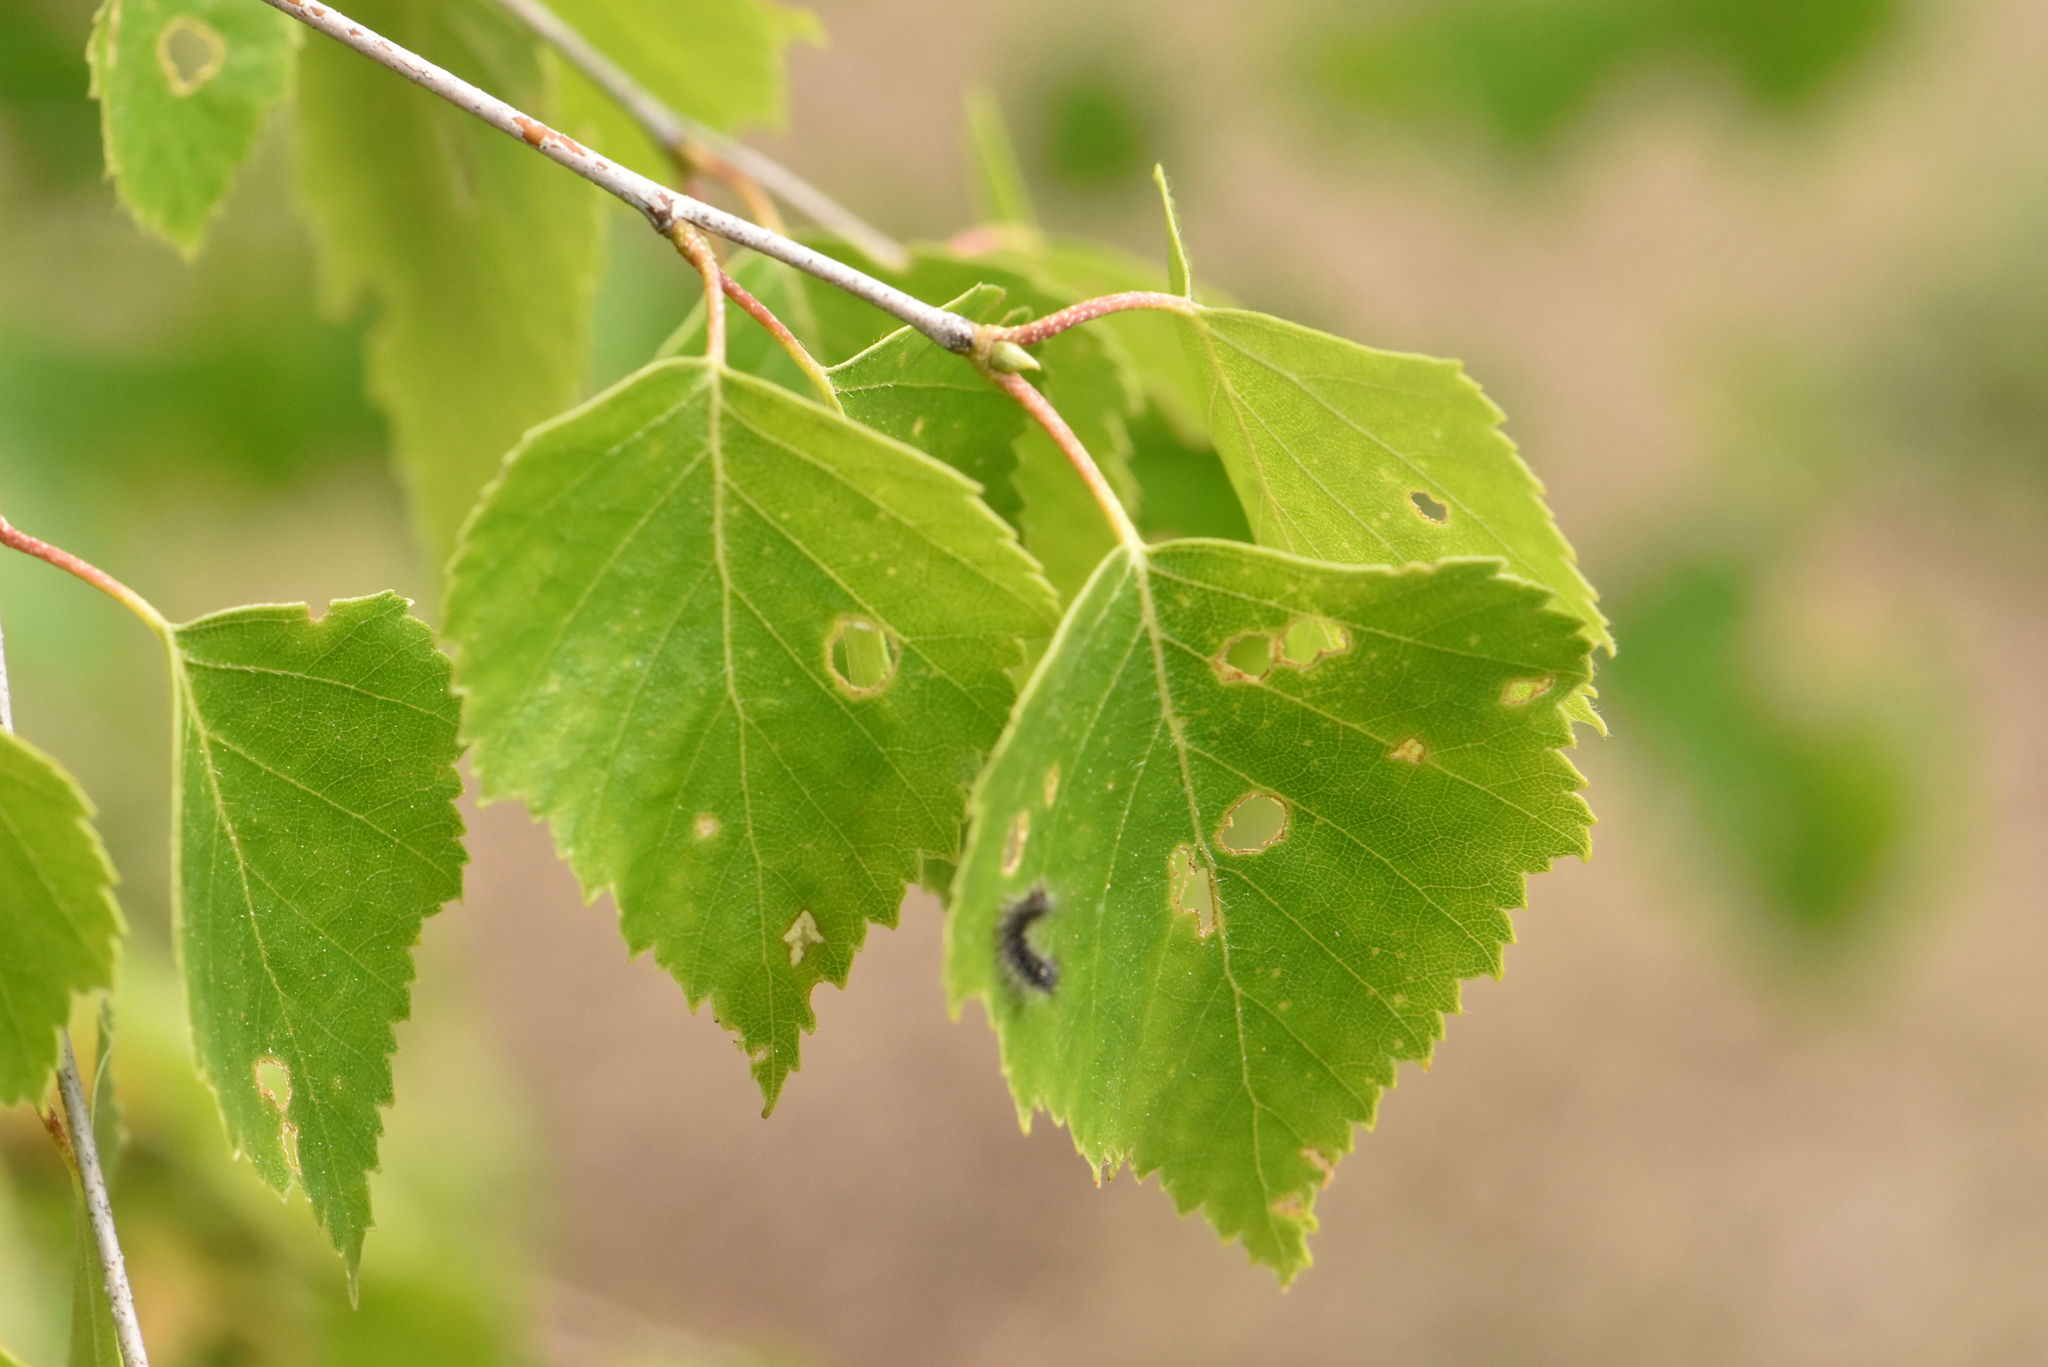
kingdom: Plantae
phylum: Tracheophyta
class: Magnoliopsida
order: Fagales
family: Betulaceae
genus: Betula
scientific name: Betula pendula
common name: Silver birch
